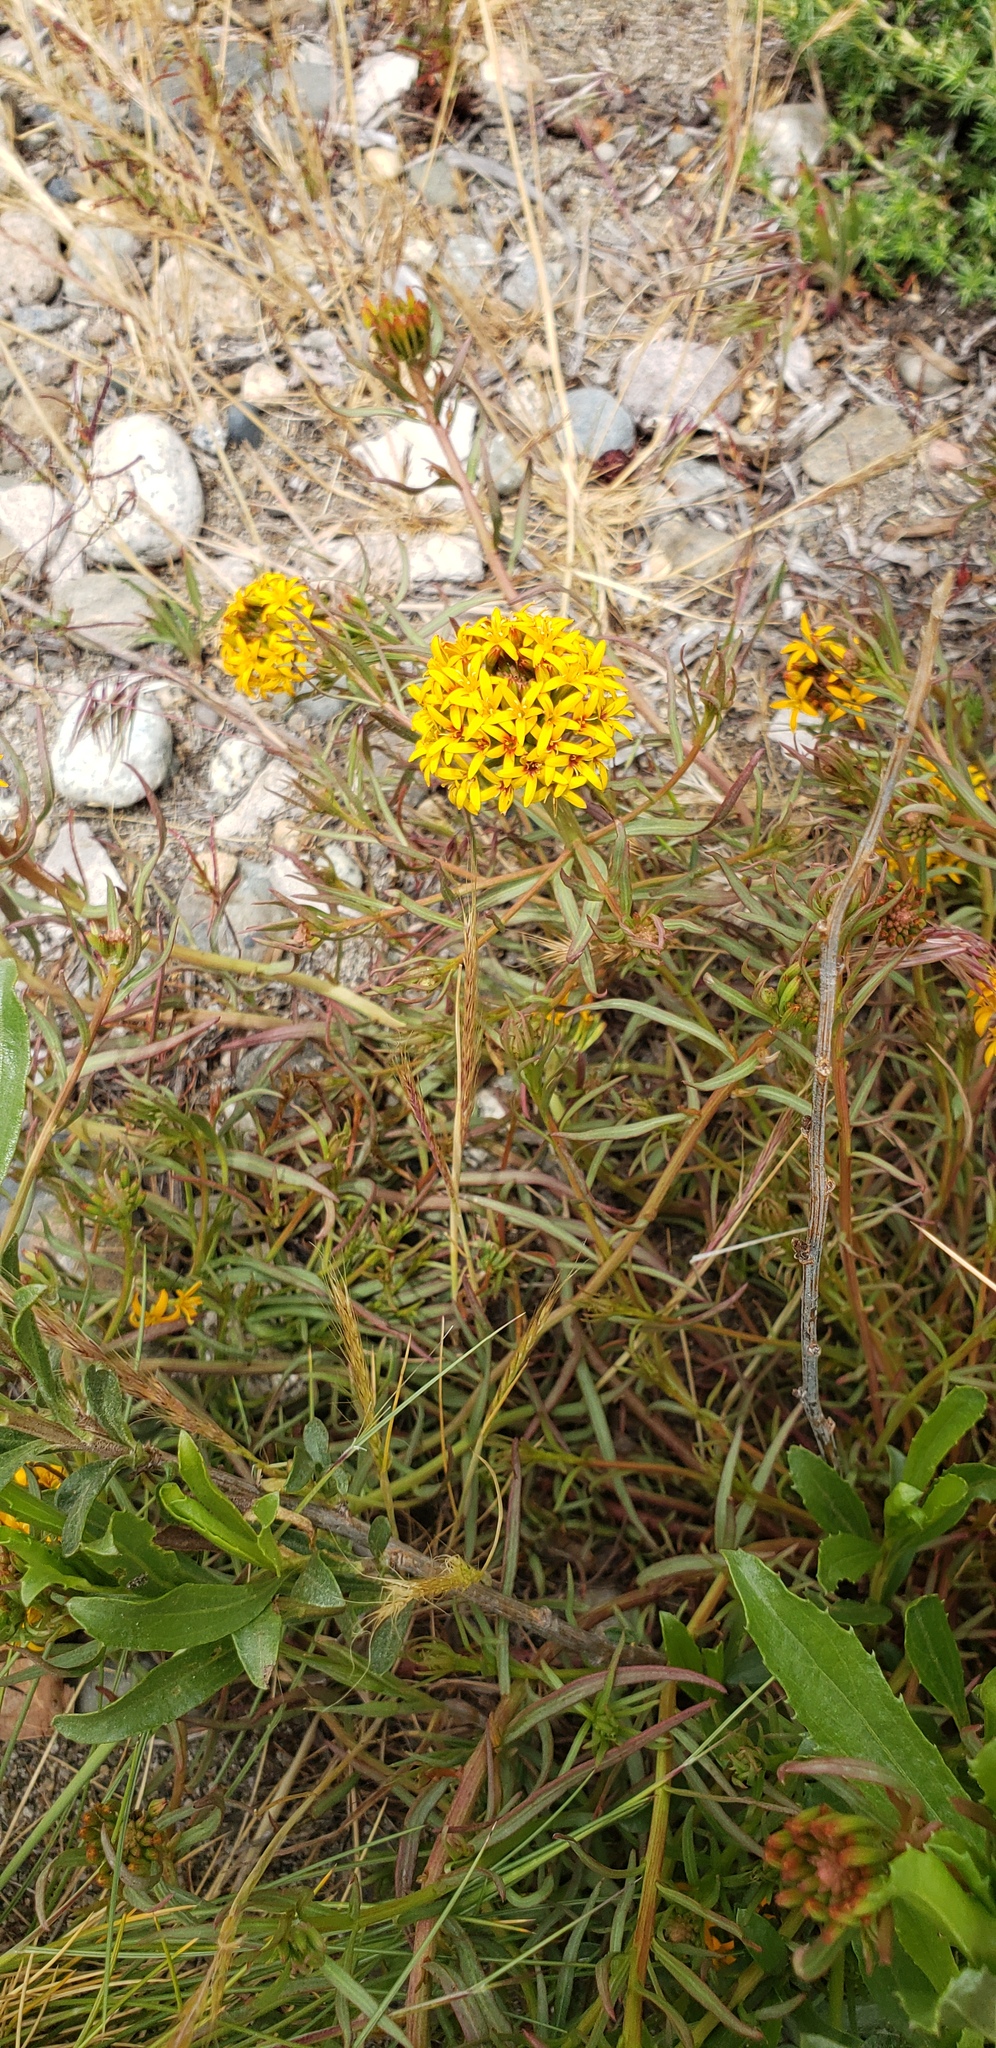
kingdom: Plantae
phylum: Tracheophyta
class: Magnoliopsida
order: Santalales
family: Schoepfiaceae
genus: Quinchamalium
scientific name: Quinchamalium chilense
